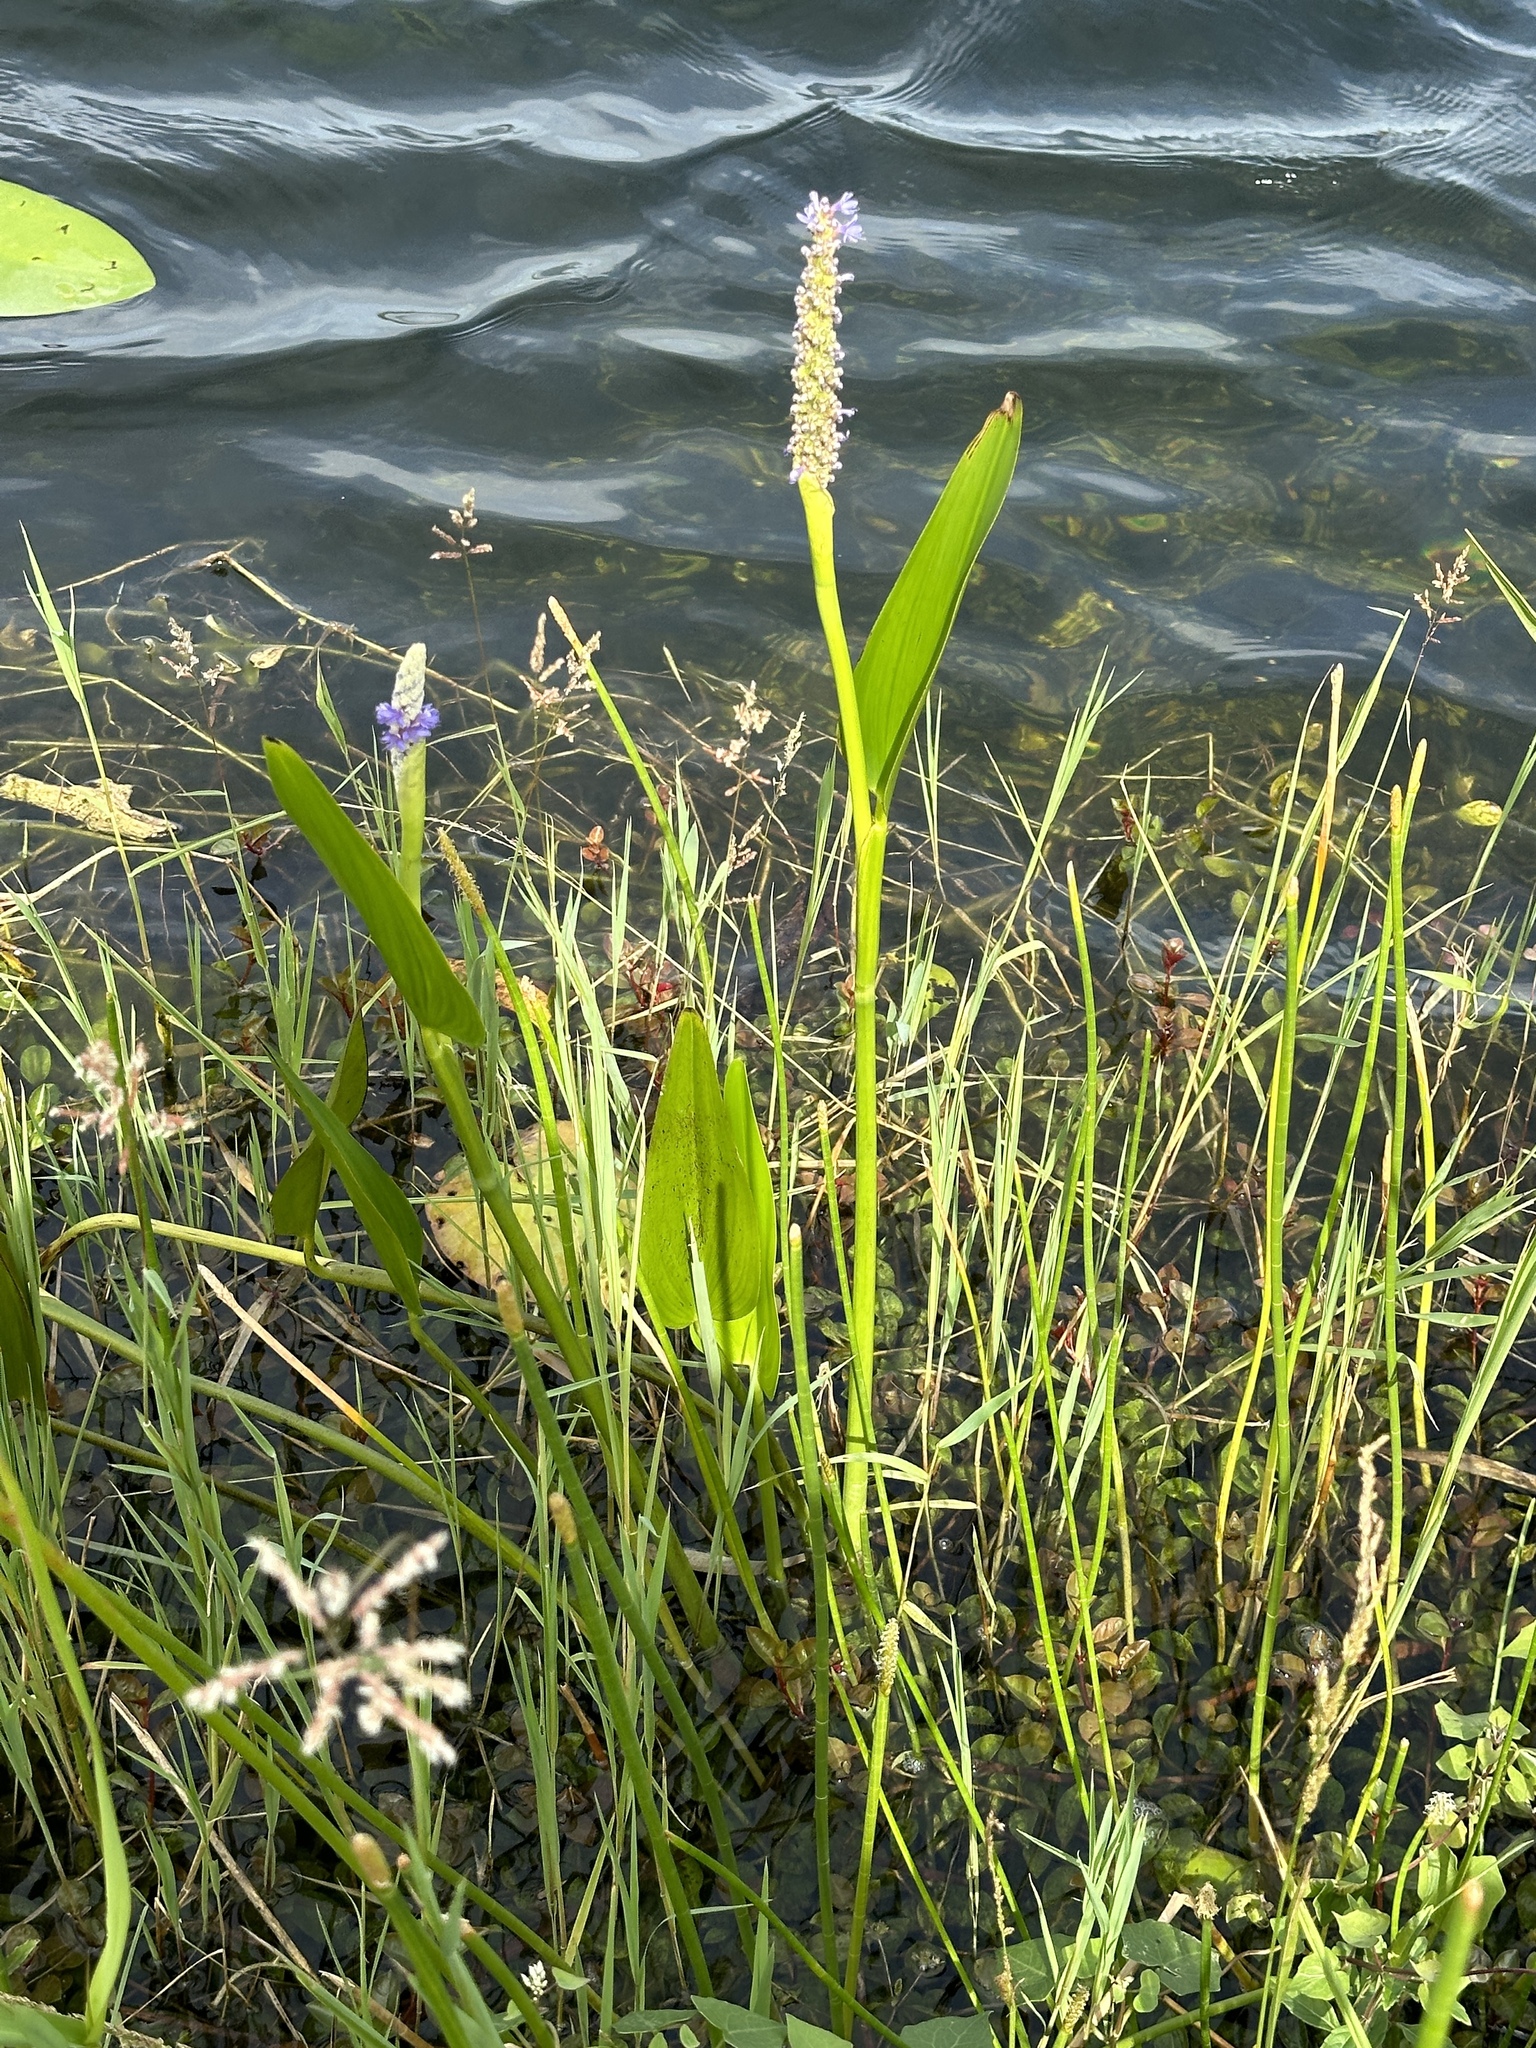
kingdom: Plantae
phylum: Tracheophyta
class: Liliopsida
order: Commelinales
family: Pontederiaceae
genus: Pontederia
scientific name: Pontederia cordata
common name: Pickerelweed
